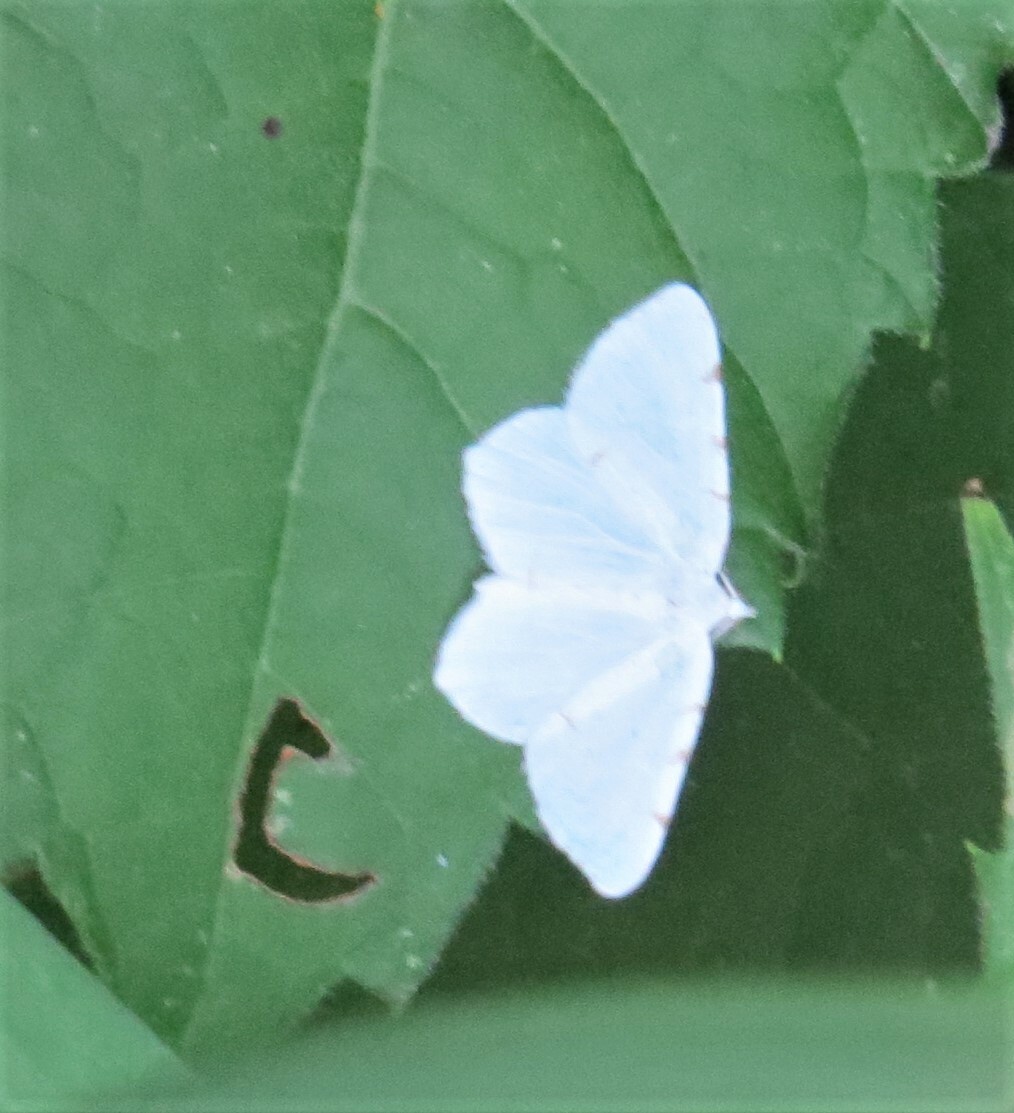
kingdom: Animalia
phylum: Arthropoda
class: Insecta
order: Lepidoptera
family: Geometridae
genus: Macaria
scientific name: Macaria pustularia
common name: Lesser maple spanworm moth
